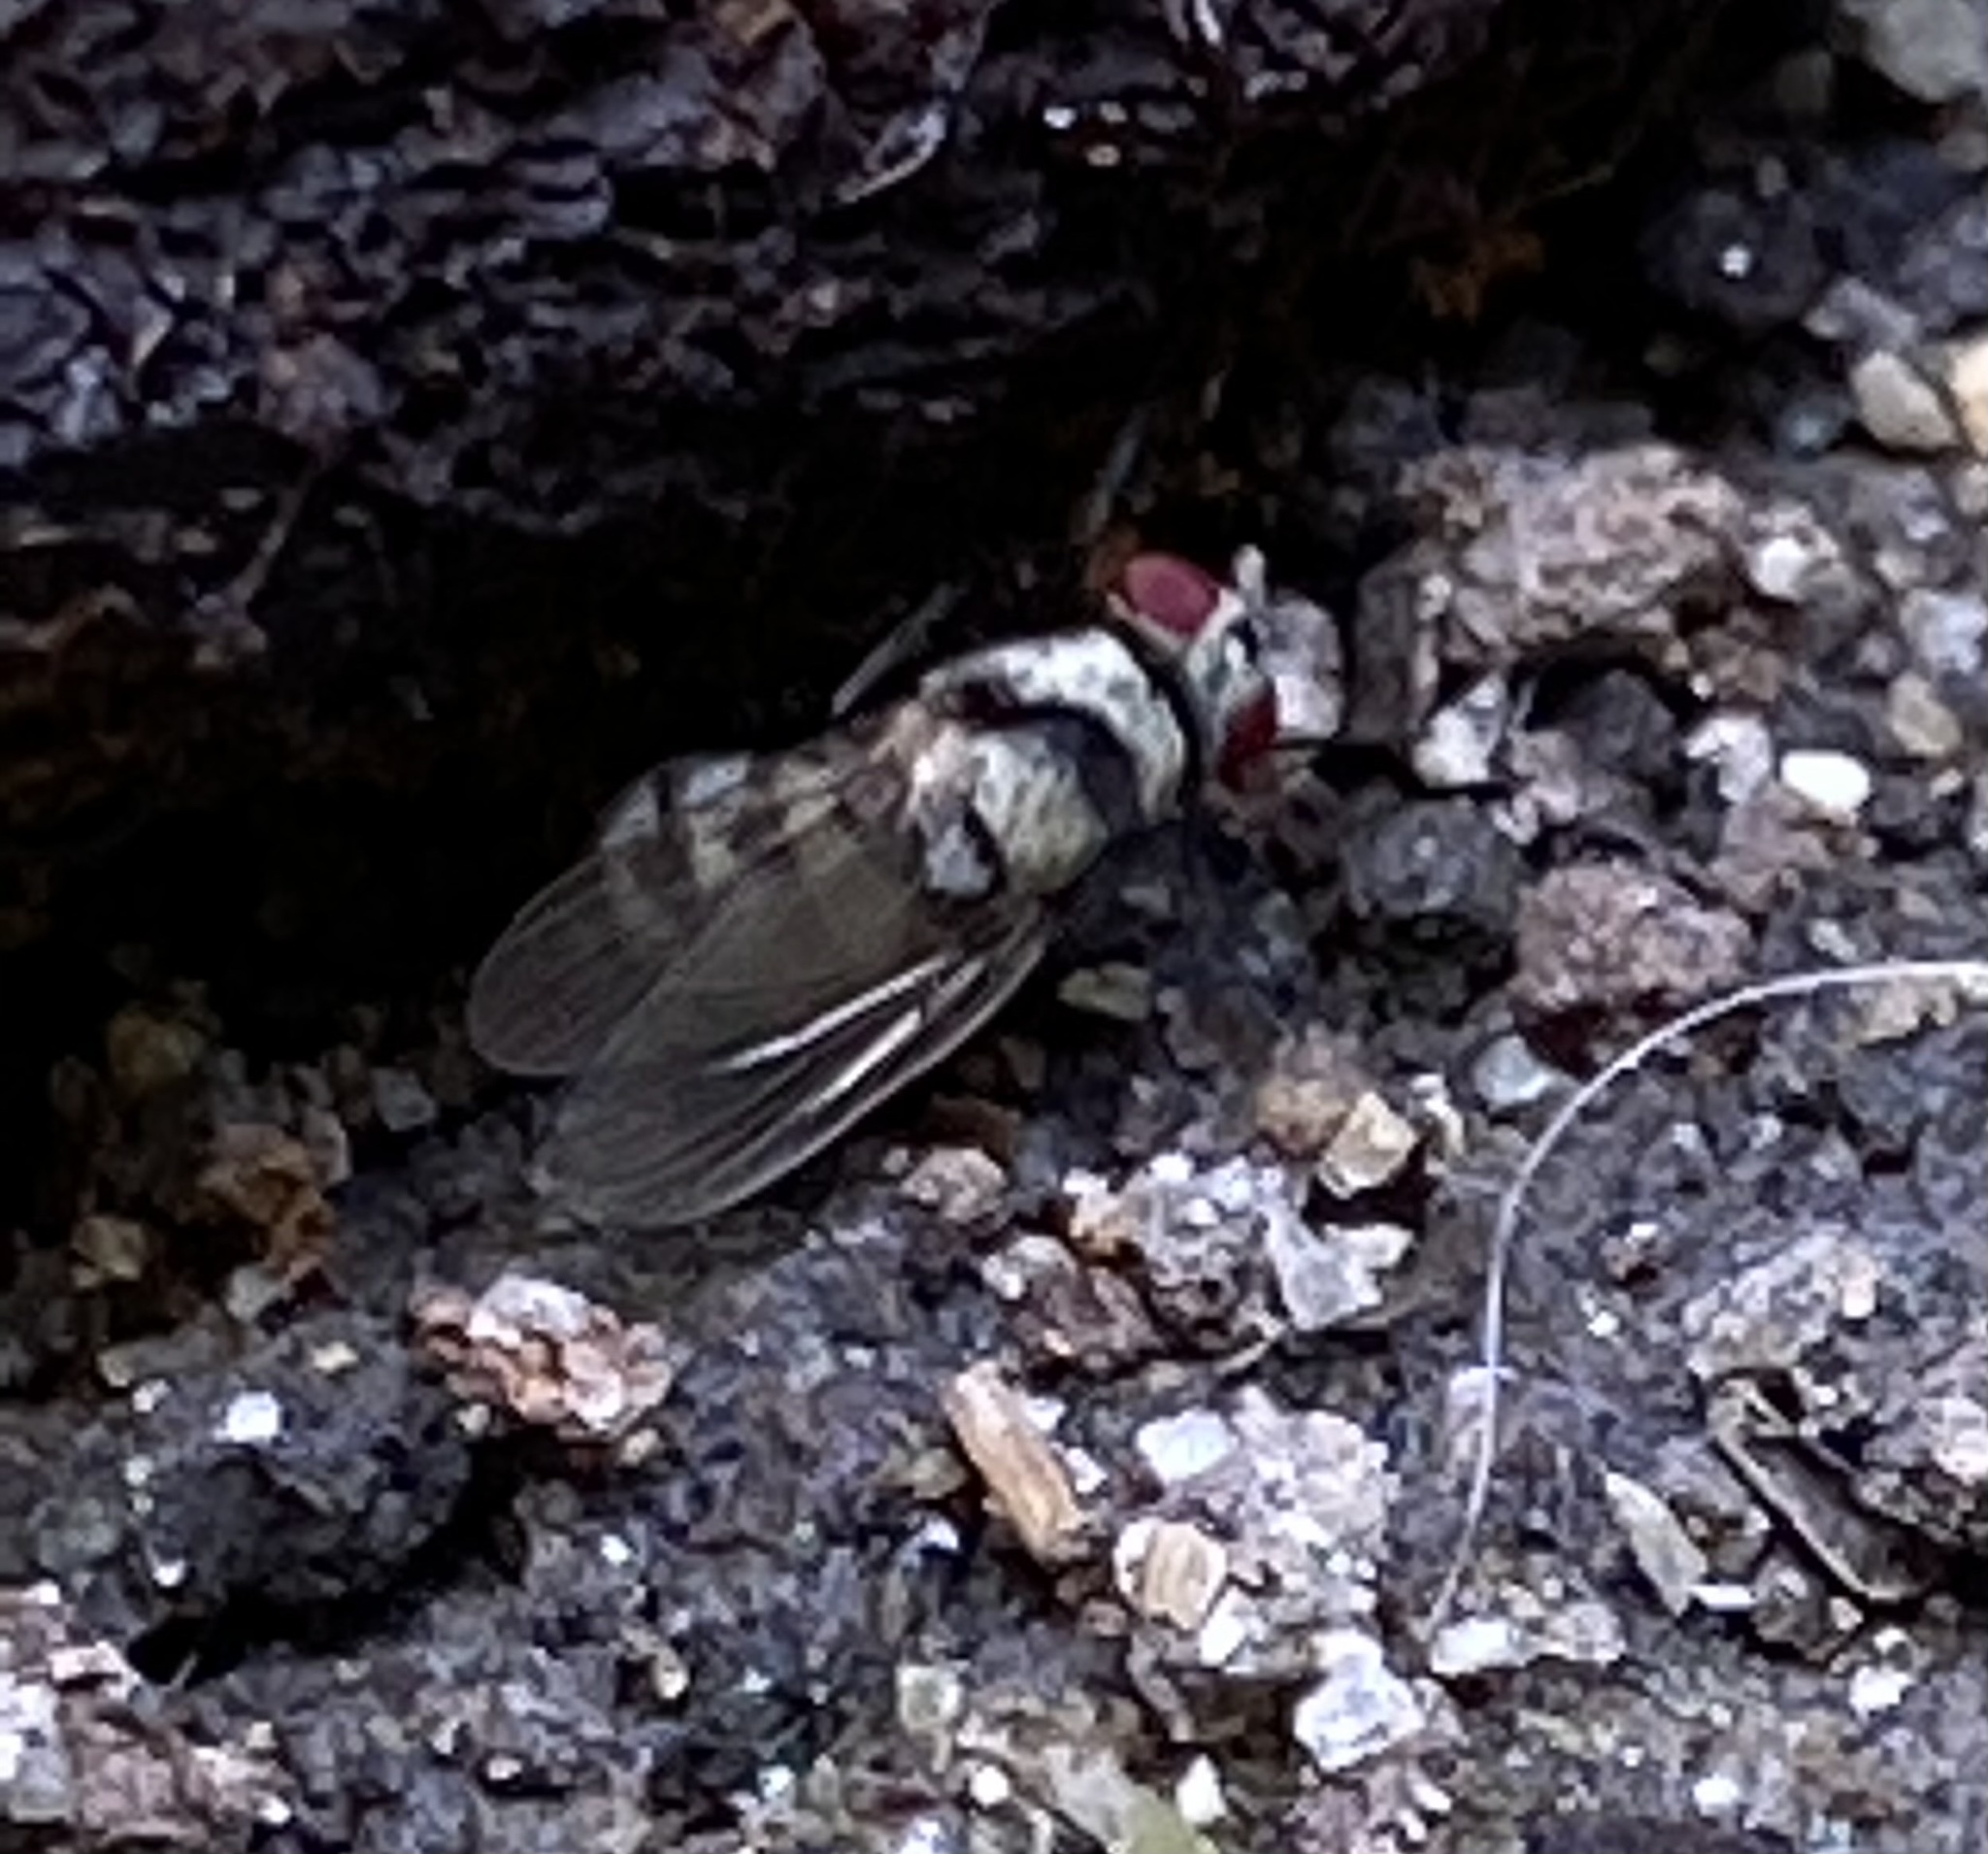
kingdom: Animalia
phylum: Arthropoda
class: Insecta
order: Diptera
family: Anthomyiidae
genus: Anthomyia
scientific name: Anthomyia illocata
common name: Fly
